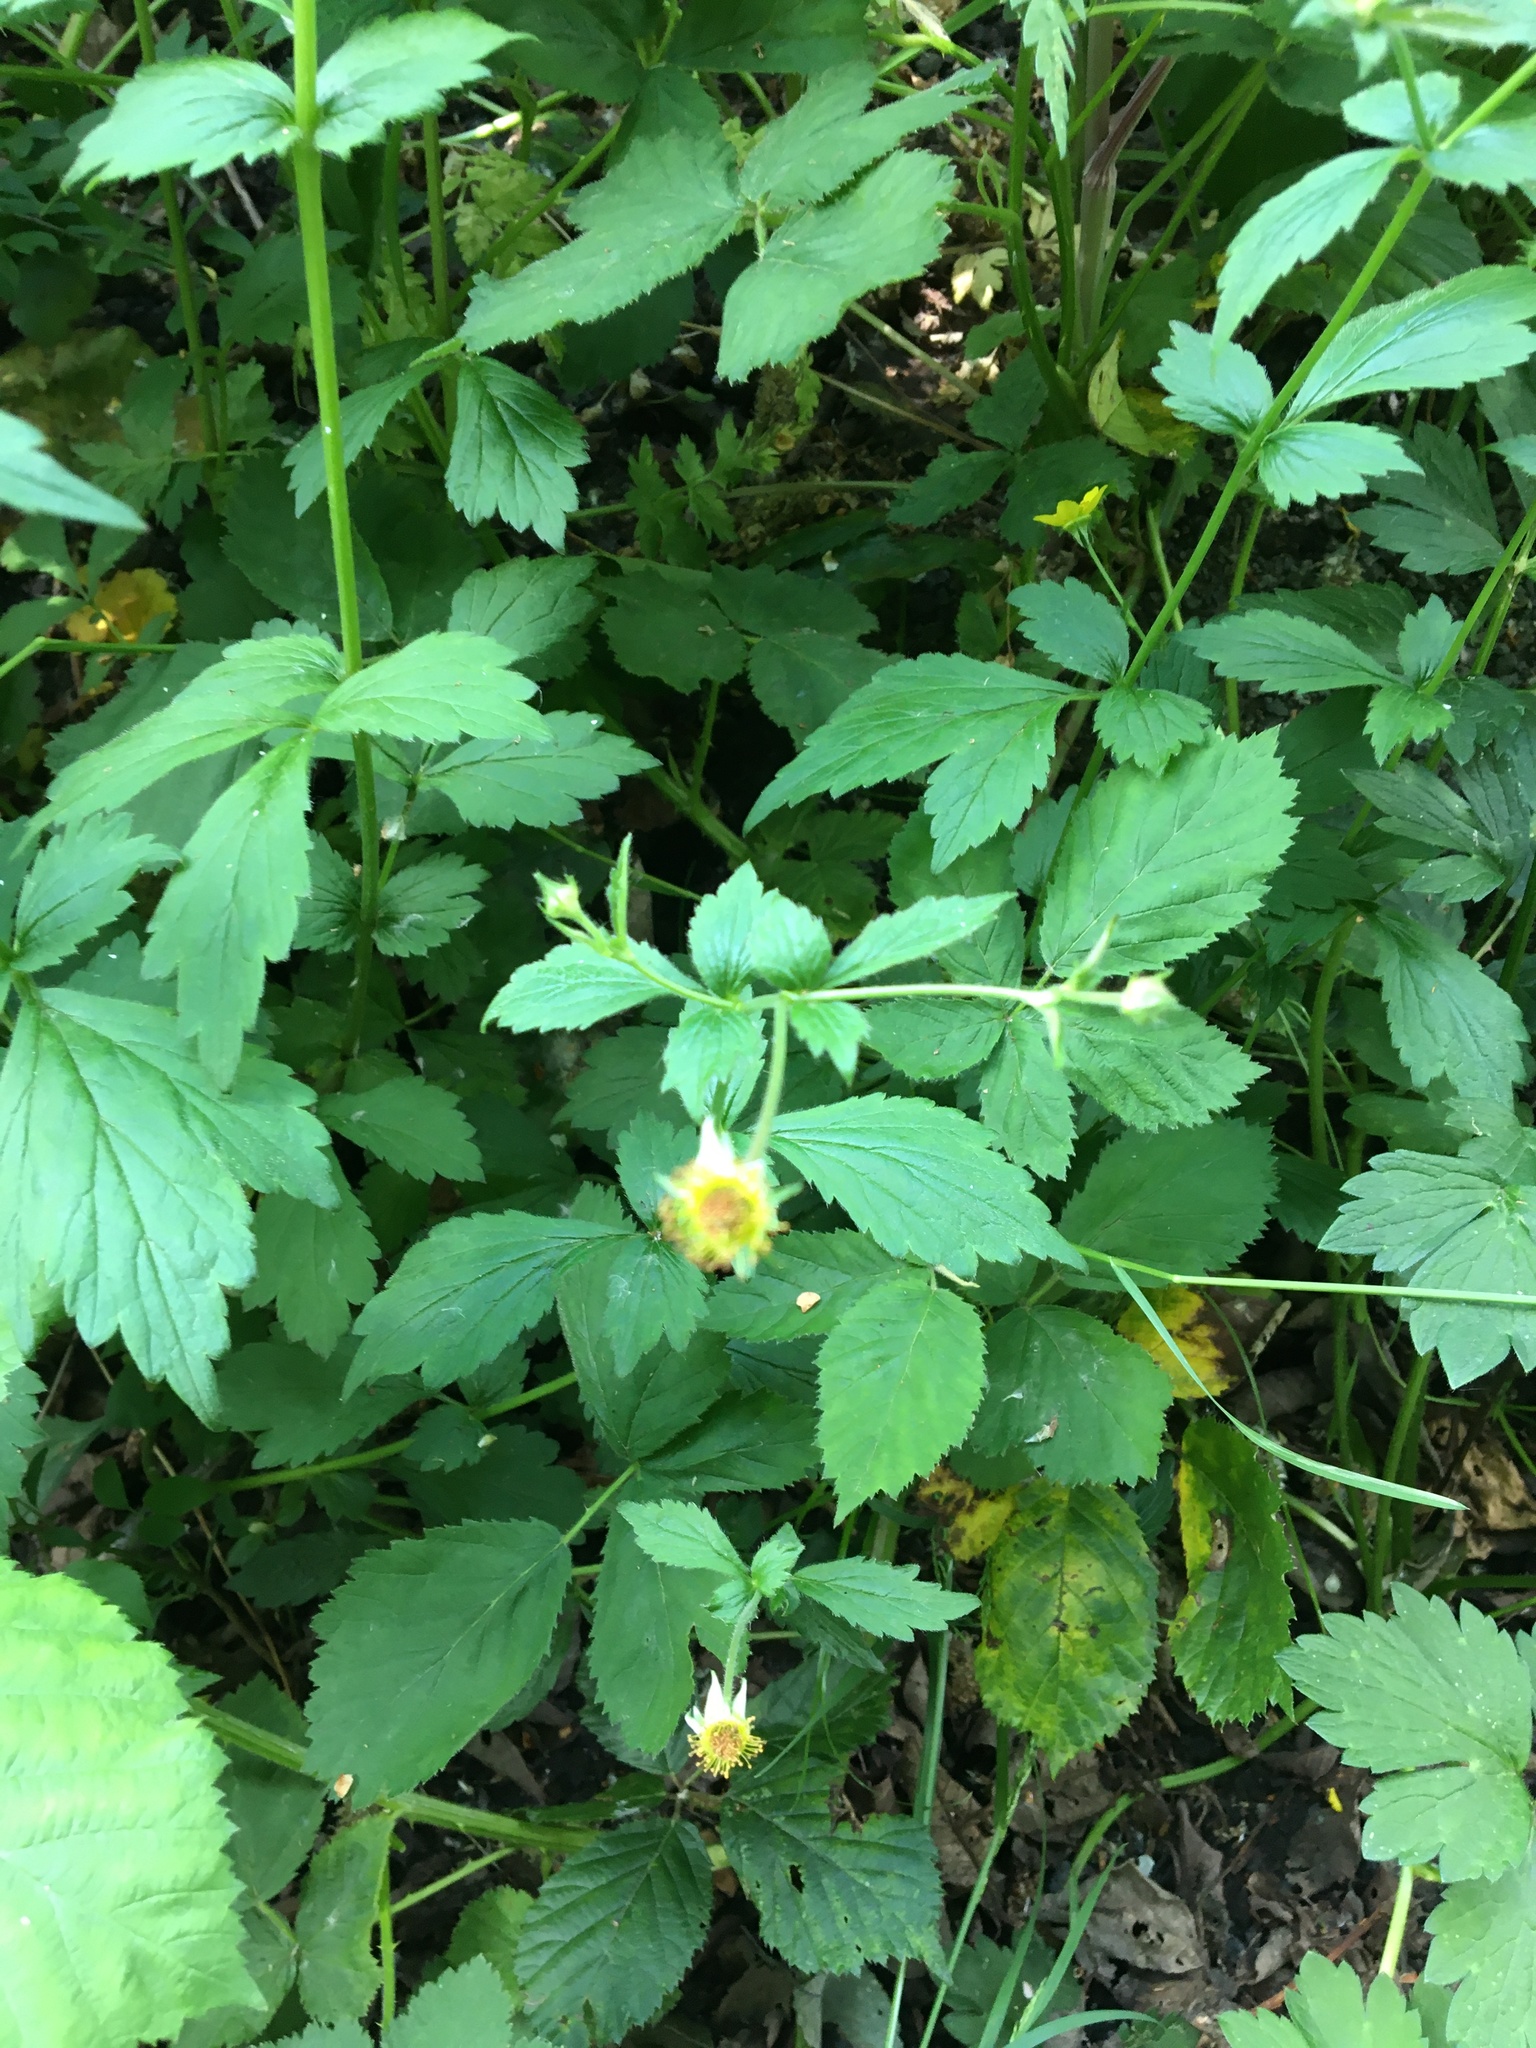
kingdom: Plantae
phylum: Tracheophyta
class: Magnoliopsida
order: Rosales
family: Rosaceae
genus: Geum
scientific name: Geum urbanum
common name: Wood avens
